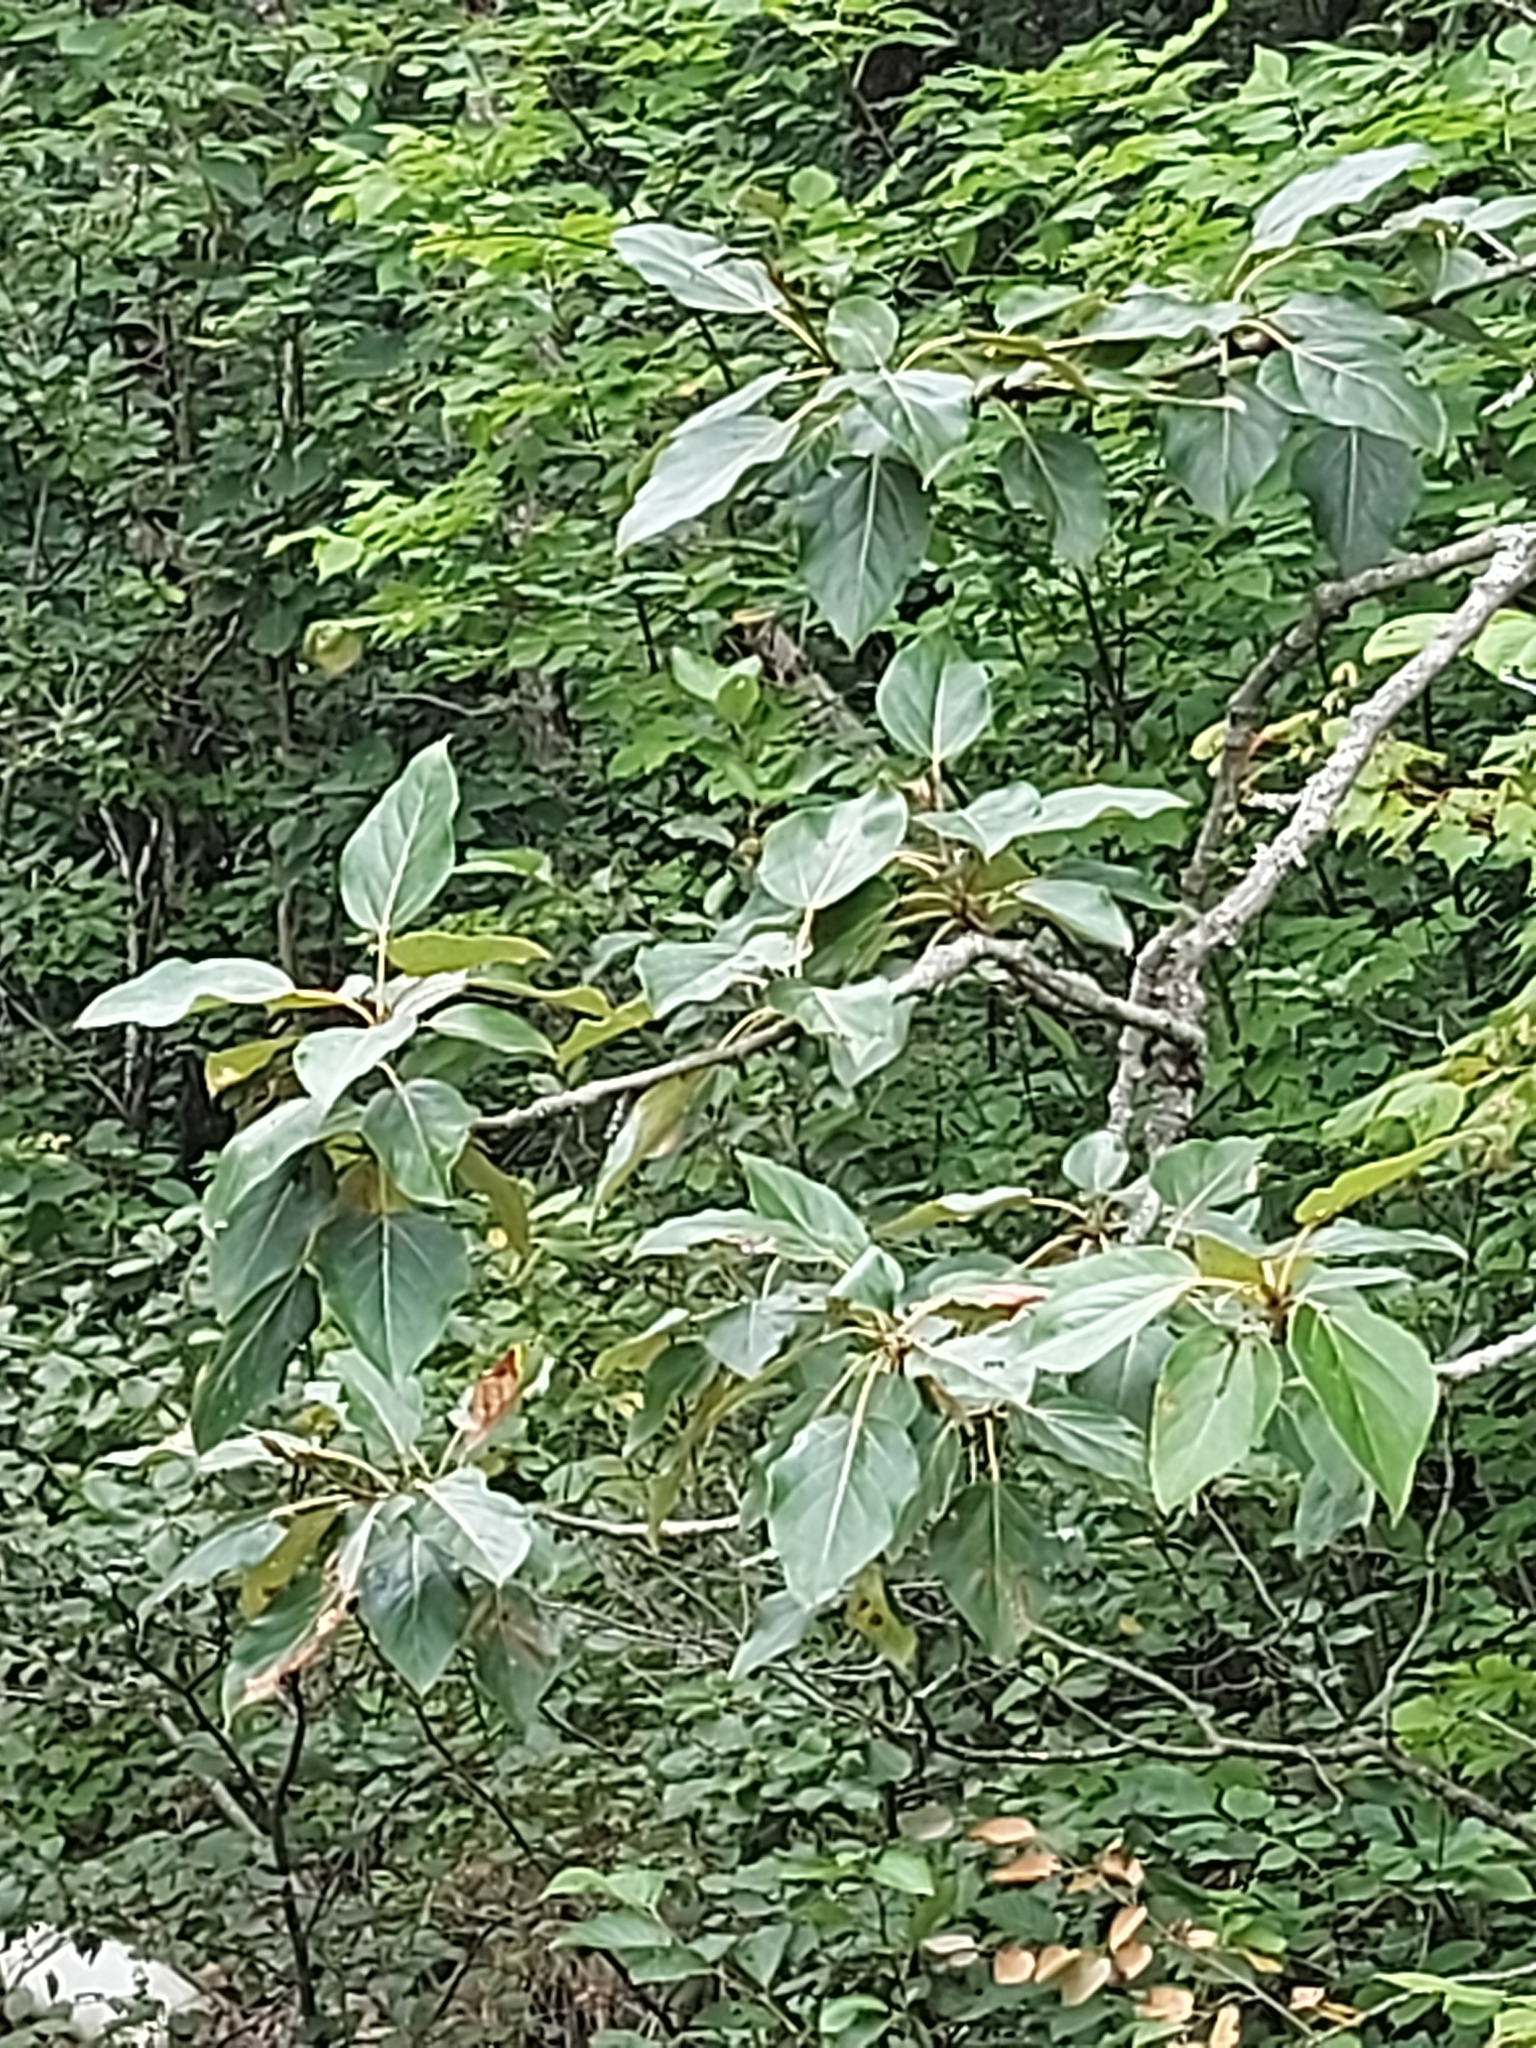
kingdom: Plantae
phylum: Tracheophyta
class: Magnoliopsida
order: Malpighiales
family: Salicaceae
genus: Populus
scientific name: Populus balsamifera
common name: Balsam poplar
